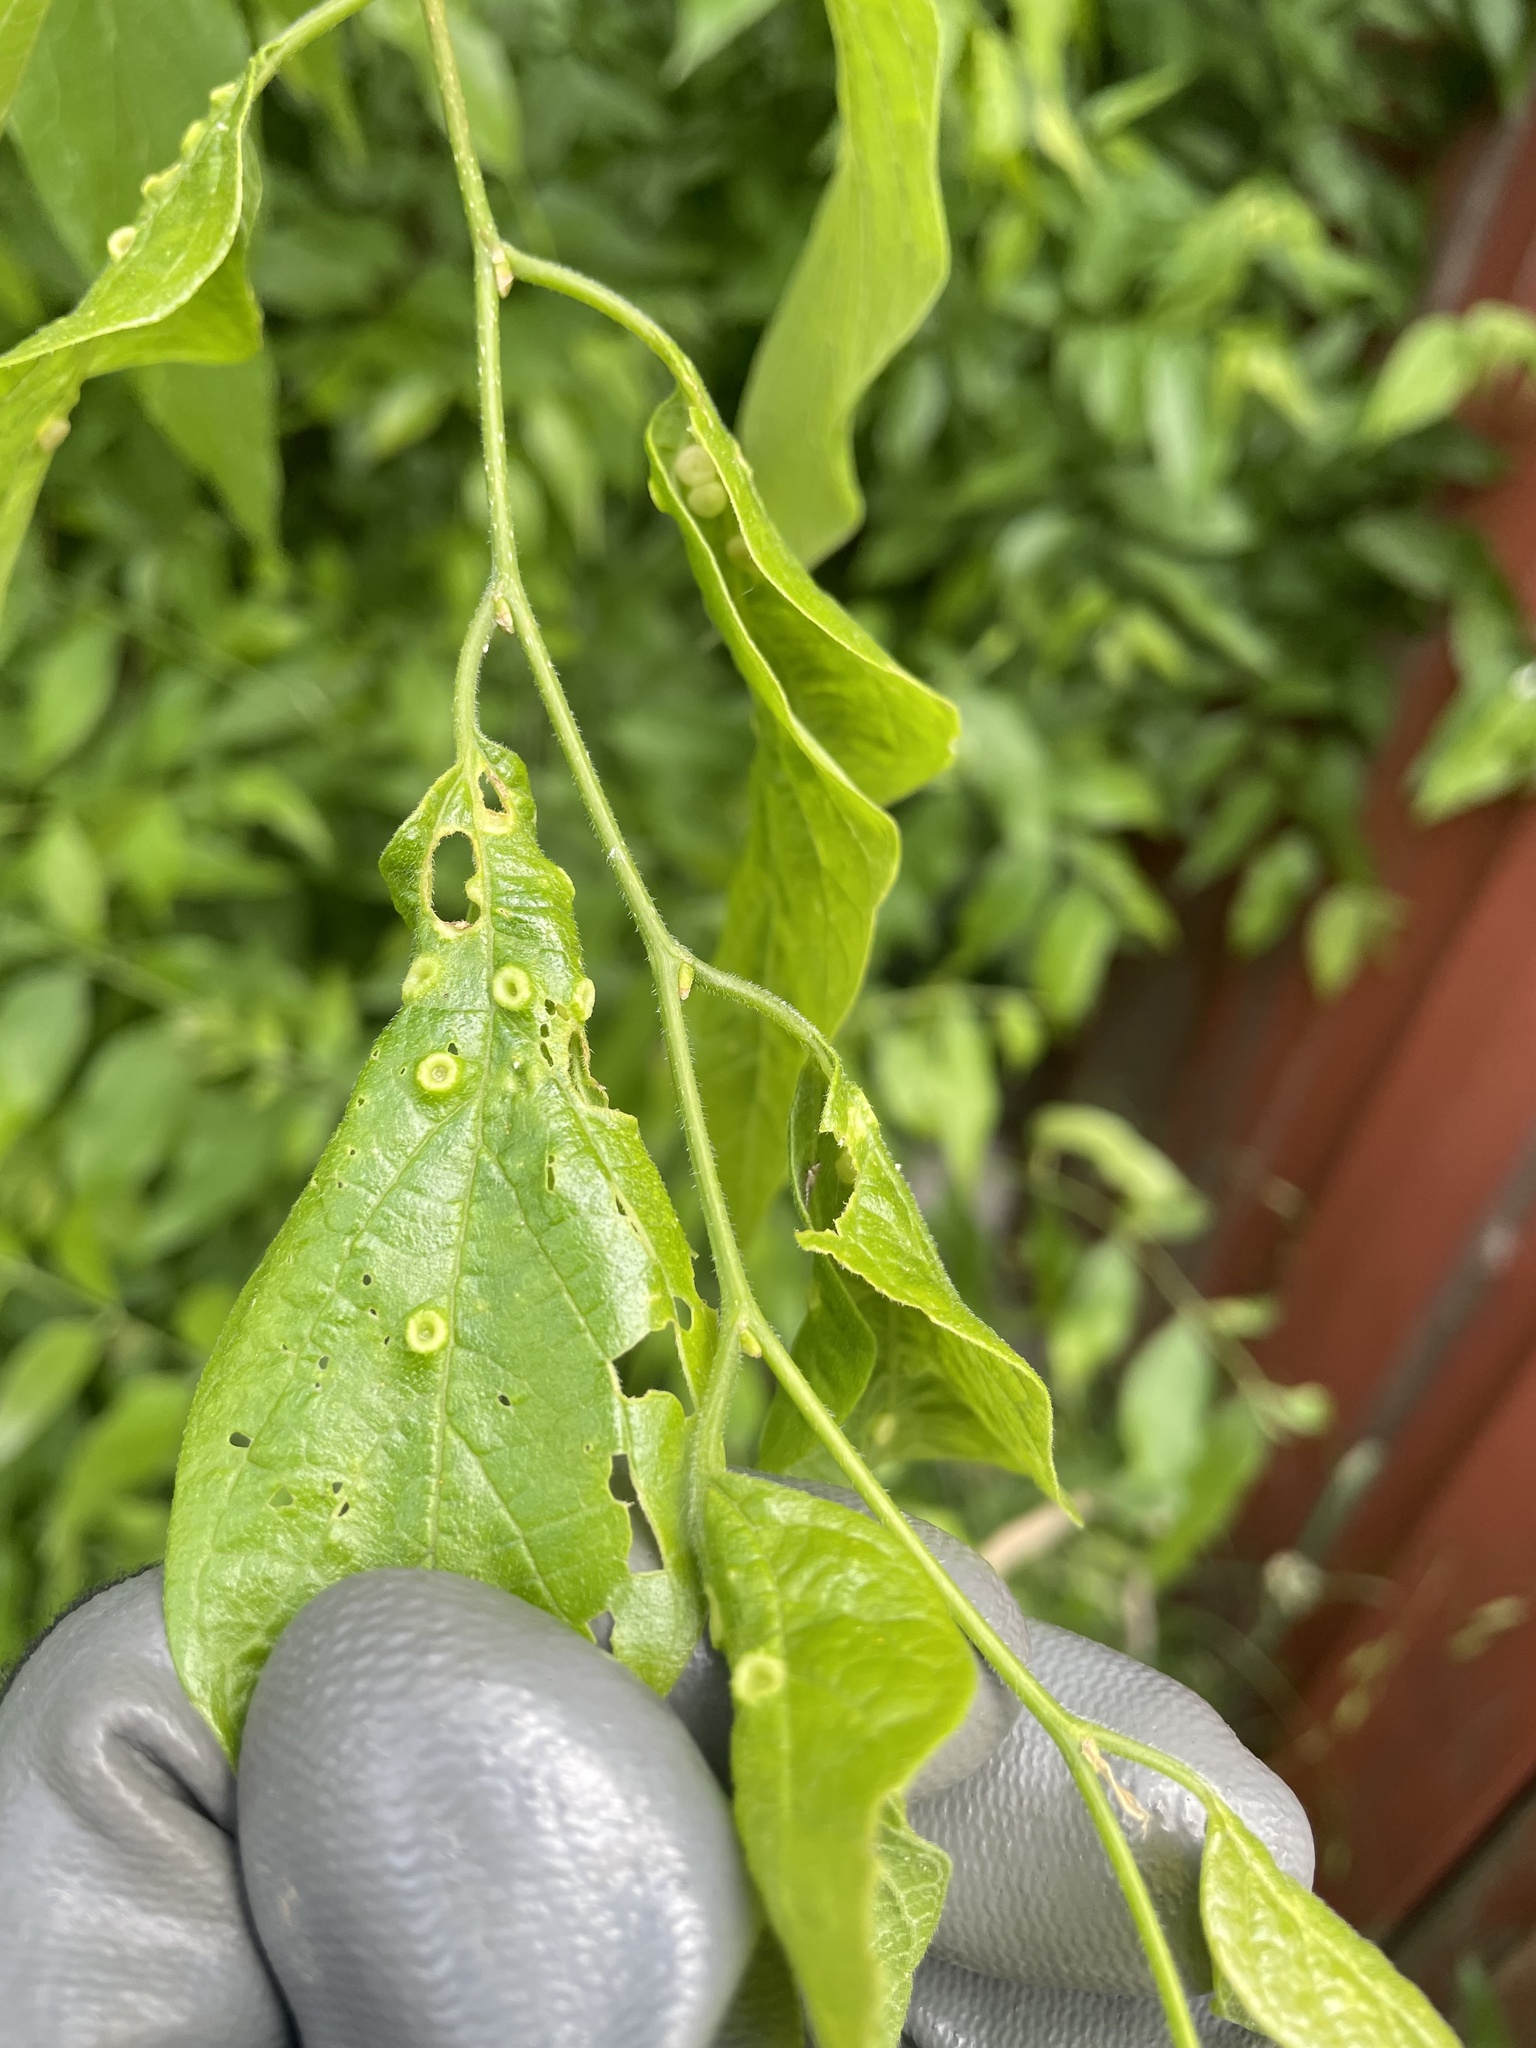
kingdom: Animalia
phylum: Arthropoda
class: Insecta
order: Hemiptera
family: Aphalaridae
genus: Pachypsylla
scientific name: Pachypsylla celtidismamma
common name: Hackberry nipplegall psyllid
